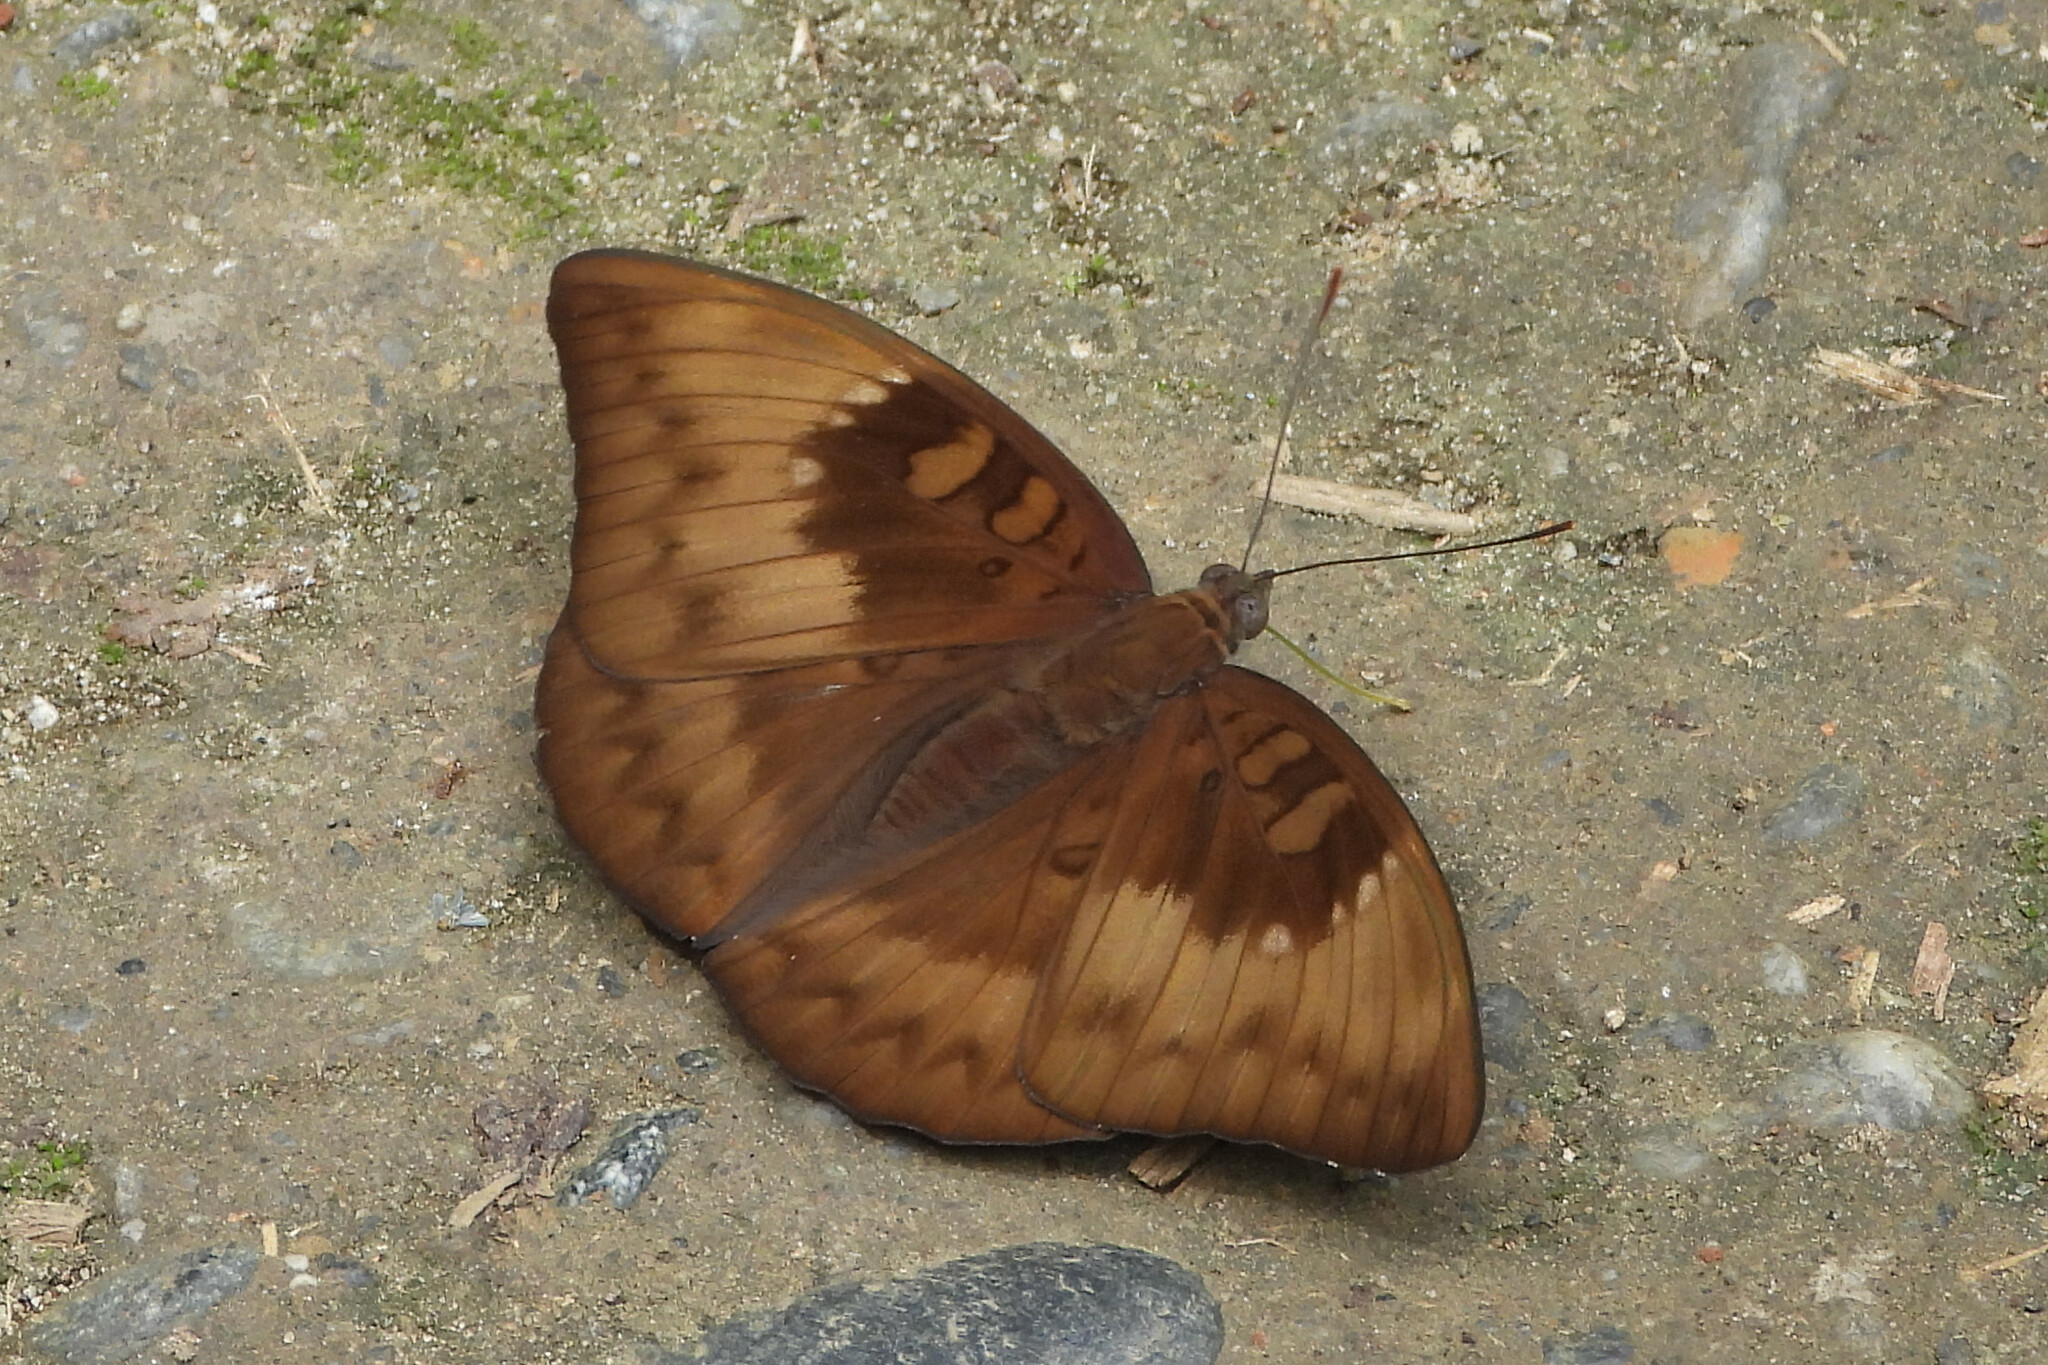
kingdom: Animalia
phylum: Arthropoda
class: Insecta
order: Lepidoptera
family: Nymphalidae
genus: Euthalia
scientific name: Euthalia monina
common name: Powdered baron
